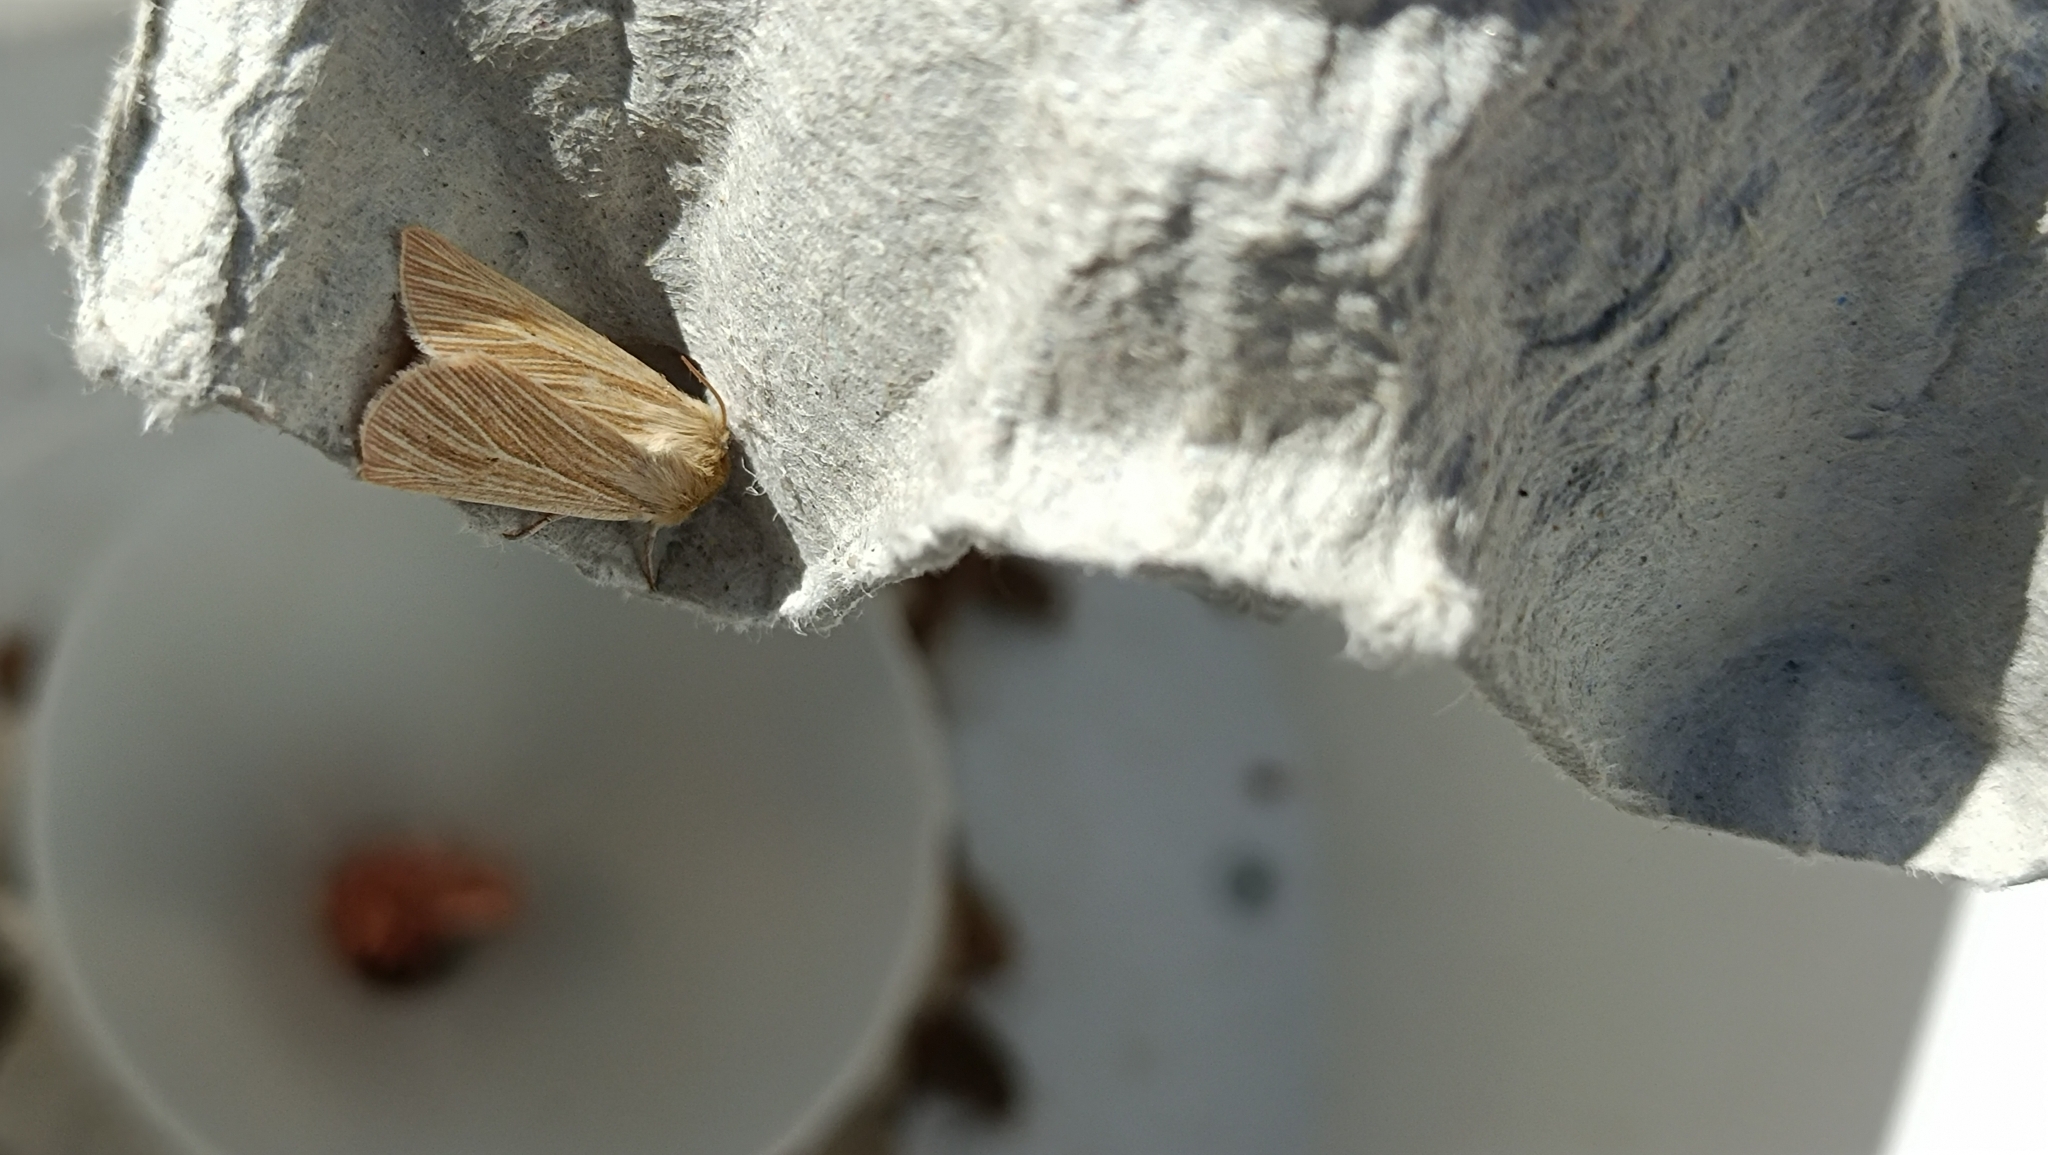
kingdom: Animalia
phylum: Arthropoda
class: Insecta
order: Lepidoptera
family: Noctuidae
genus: Mythimna
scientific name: Mythimna pallens
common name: Common wainscot
